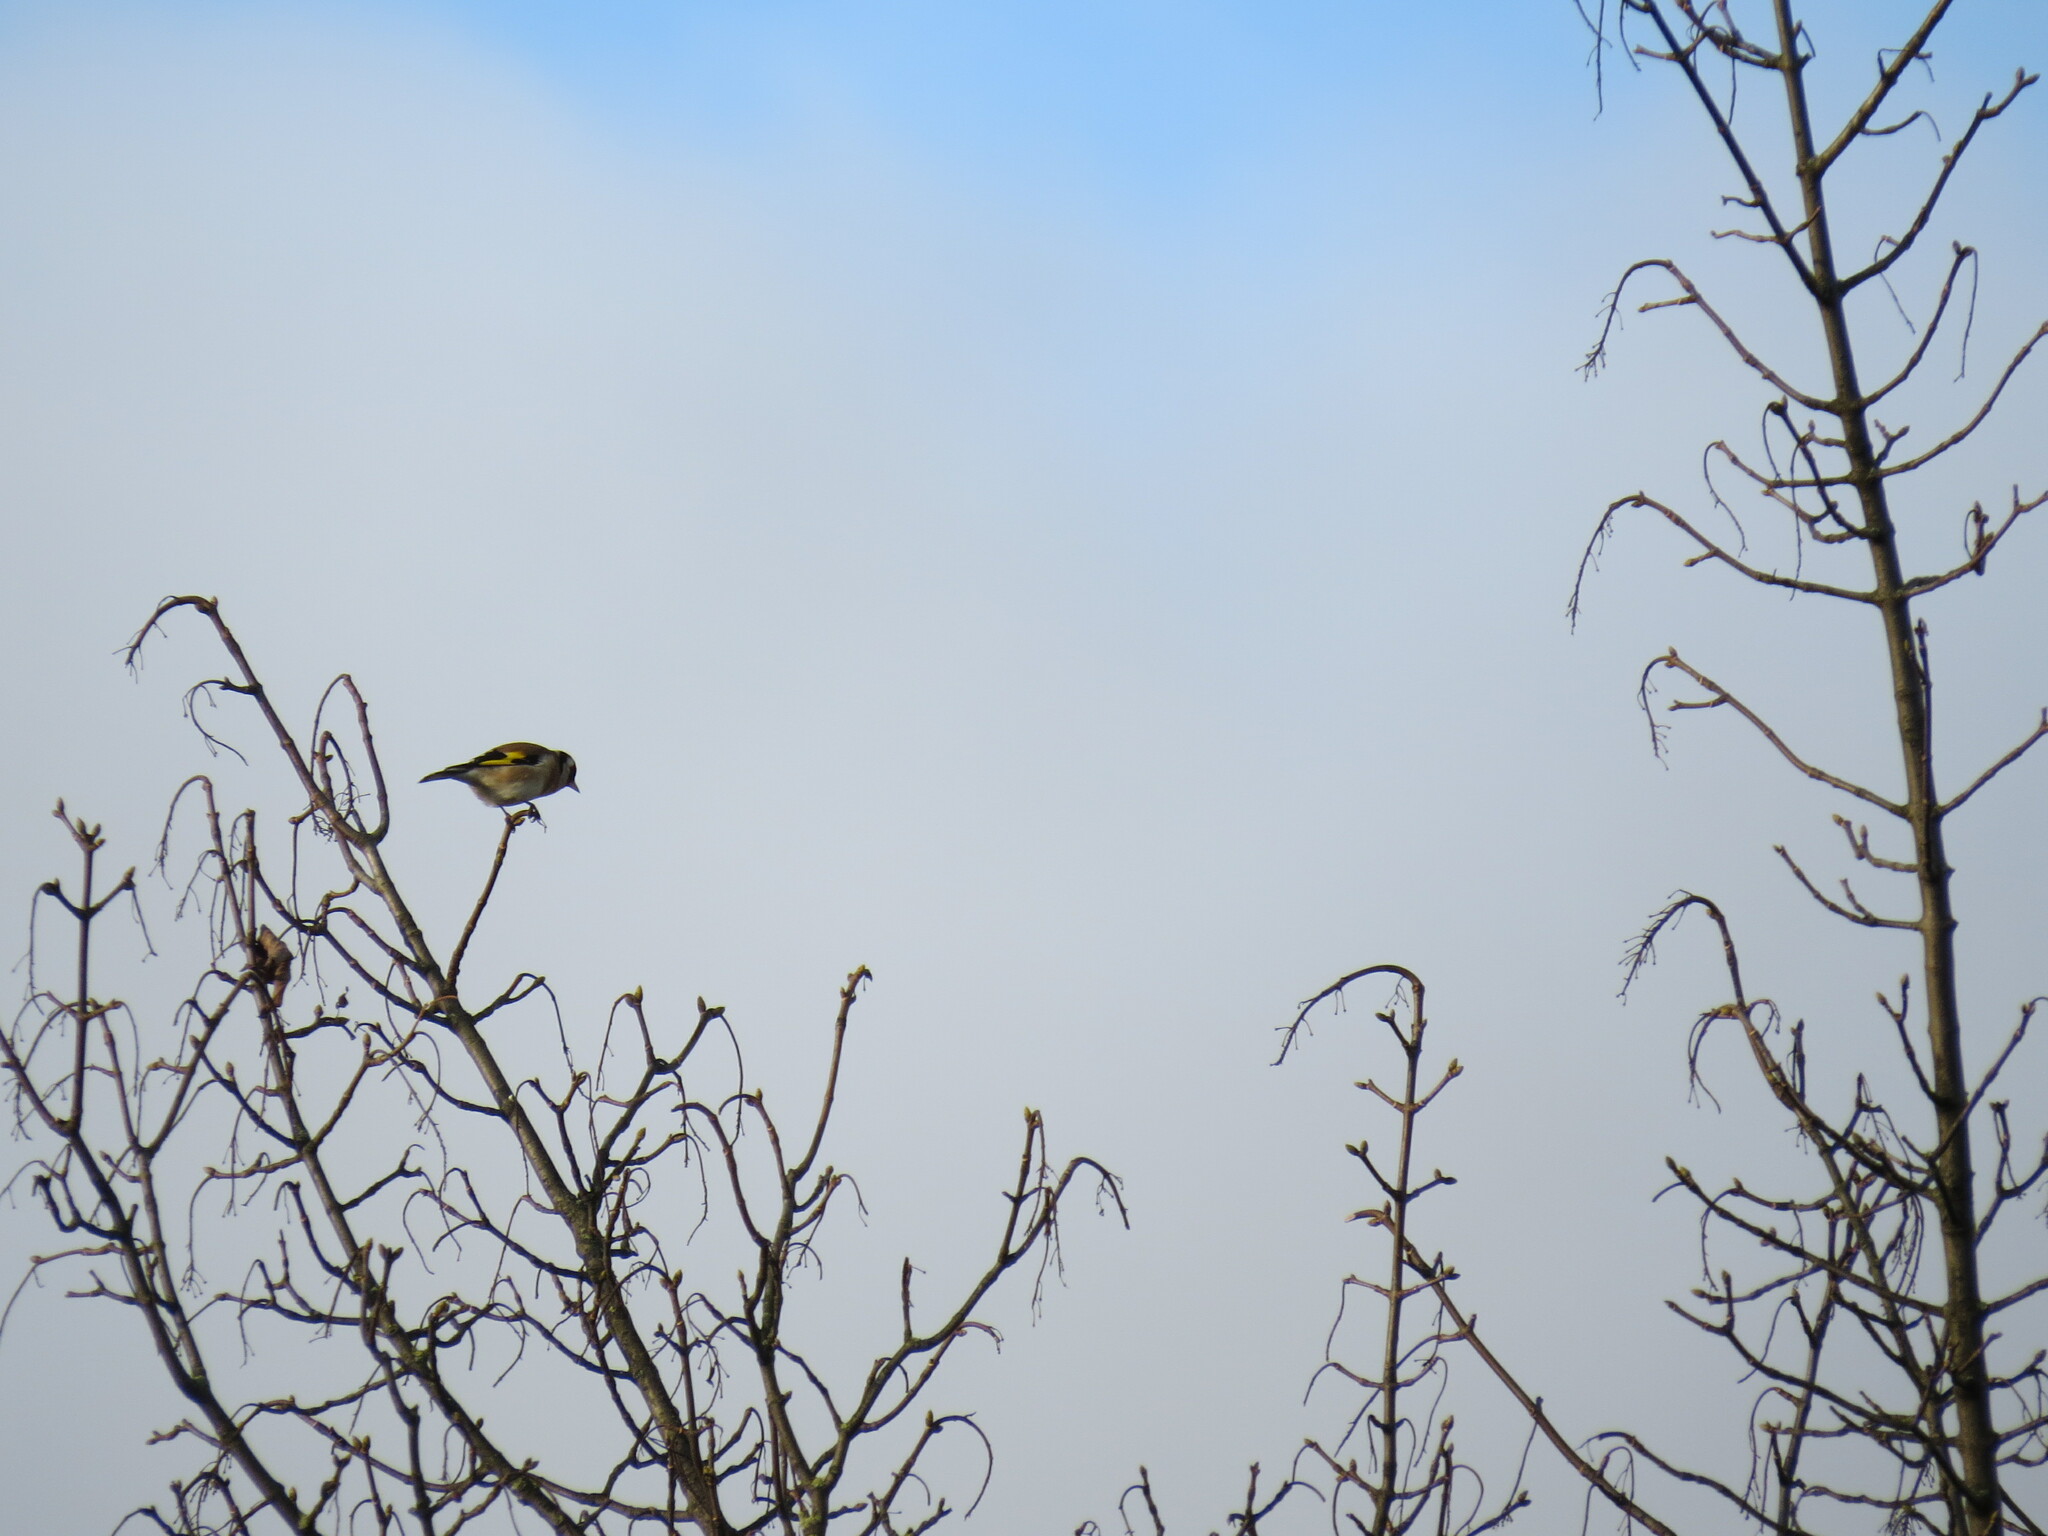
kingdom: Animalia
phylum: Chordata
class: Aves
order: Passeriformes
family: Fringillidae
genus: Carduelis
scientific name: Carduelis carduelis
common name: European goldfinch
